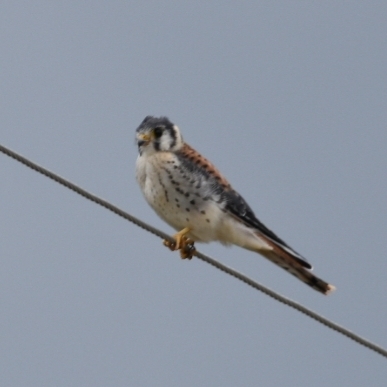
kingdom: Animalia
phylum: Chordata
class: Aves
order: Falconiformes
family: Falconidae
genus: Falco
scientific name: Falco sparverius
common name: American kestrel
